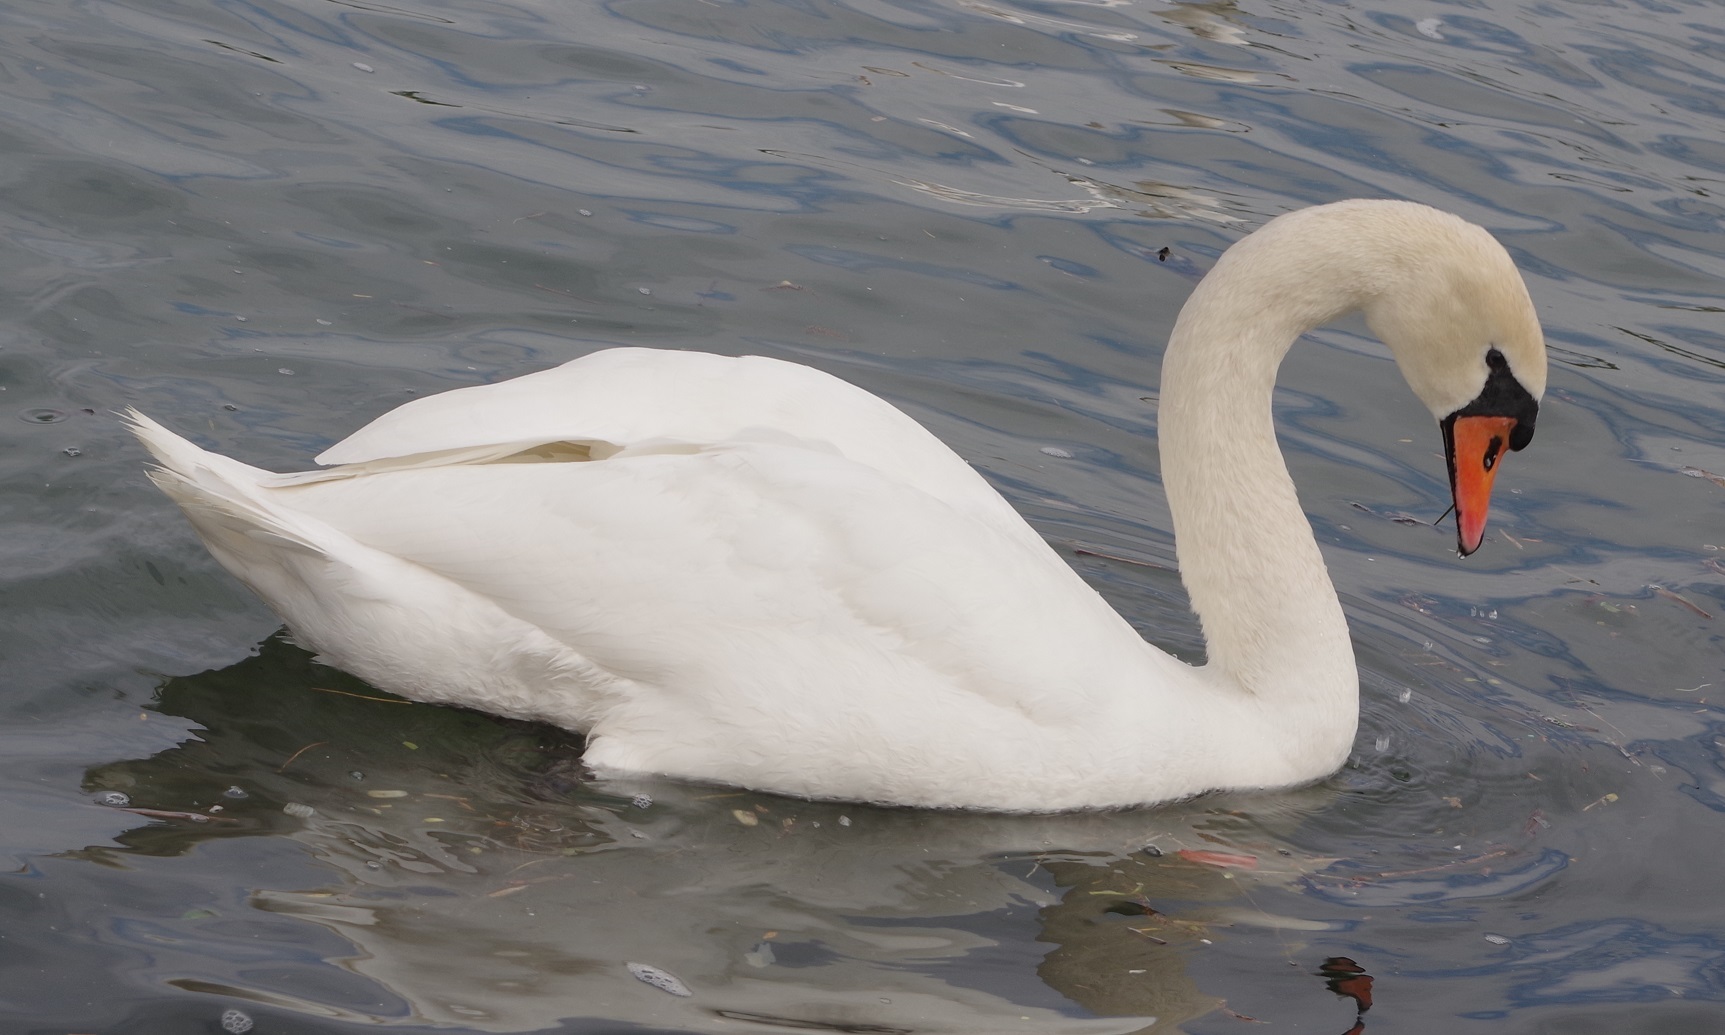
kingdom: Animalia
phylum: Chordata
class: Aves
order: Anseriformes
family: Anatidae
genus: Cygnus
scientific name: Cygnus olor
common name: Mute swan
